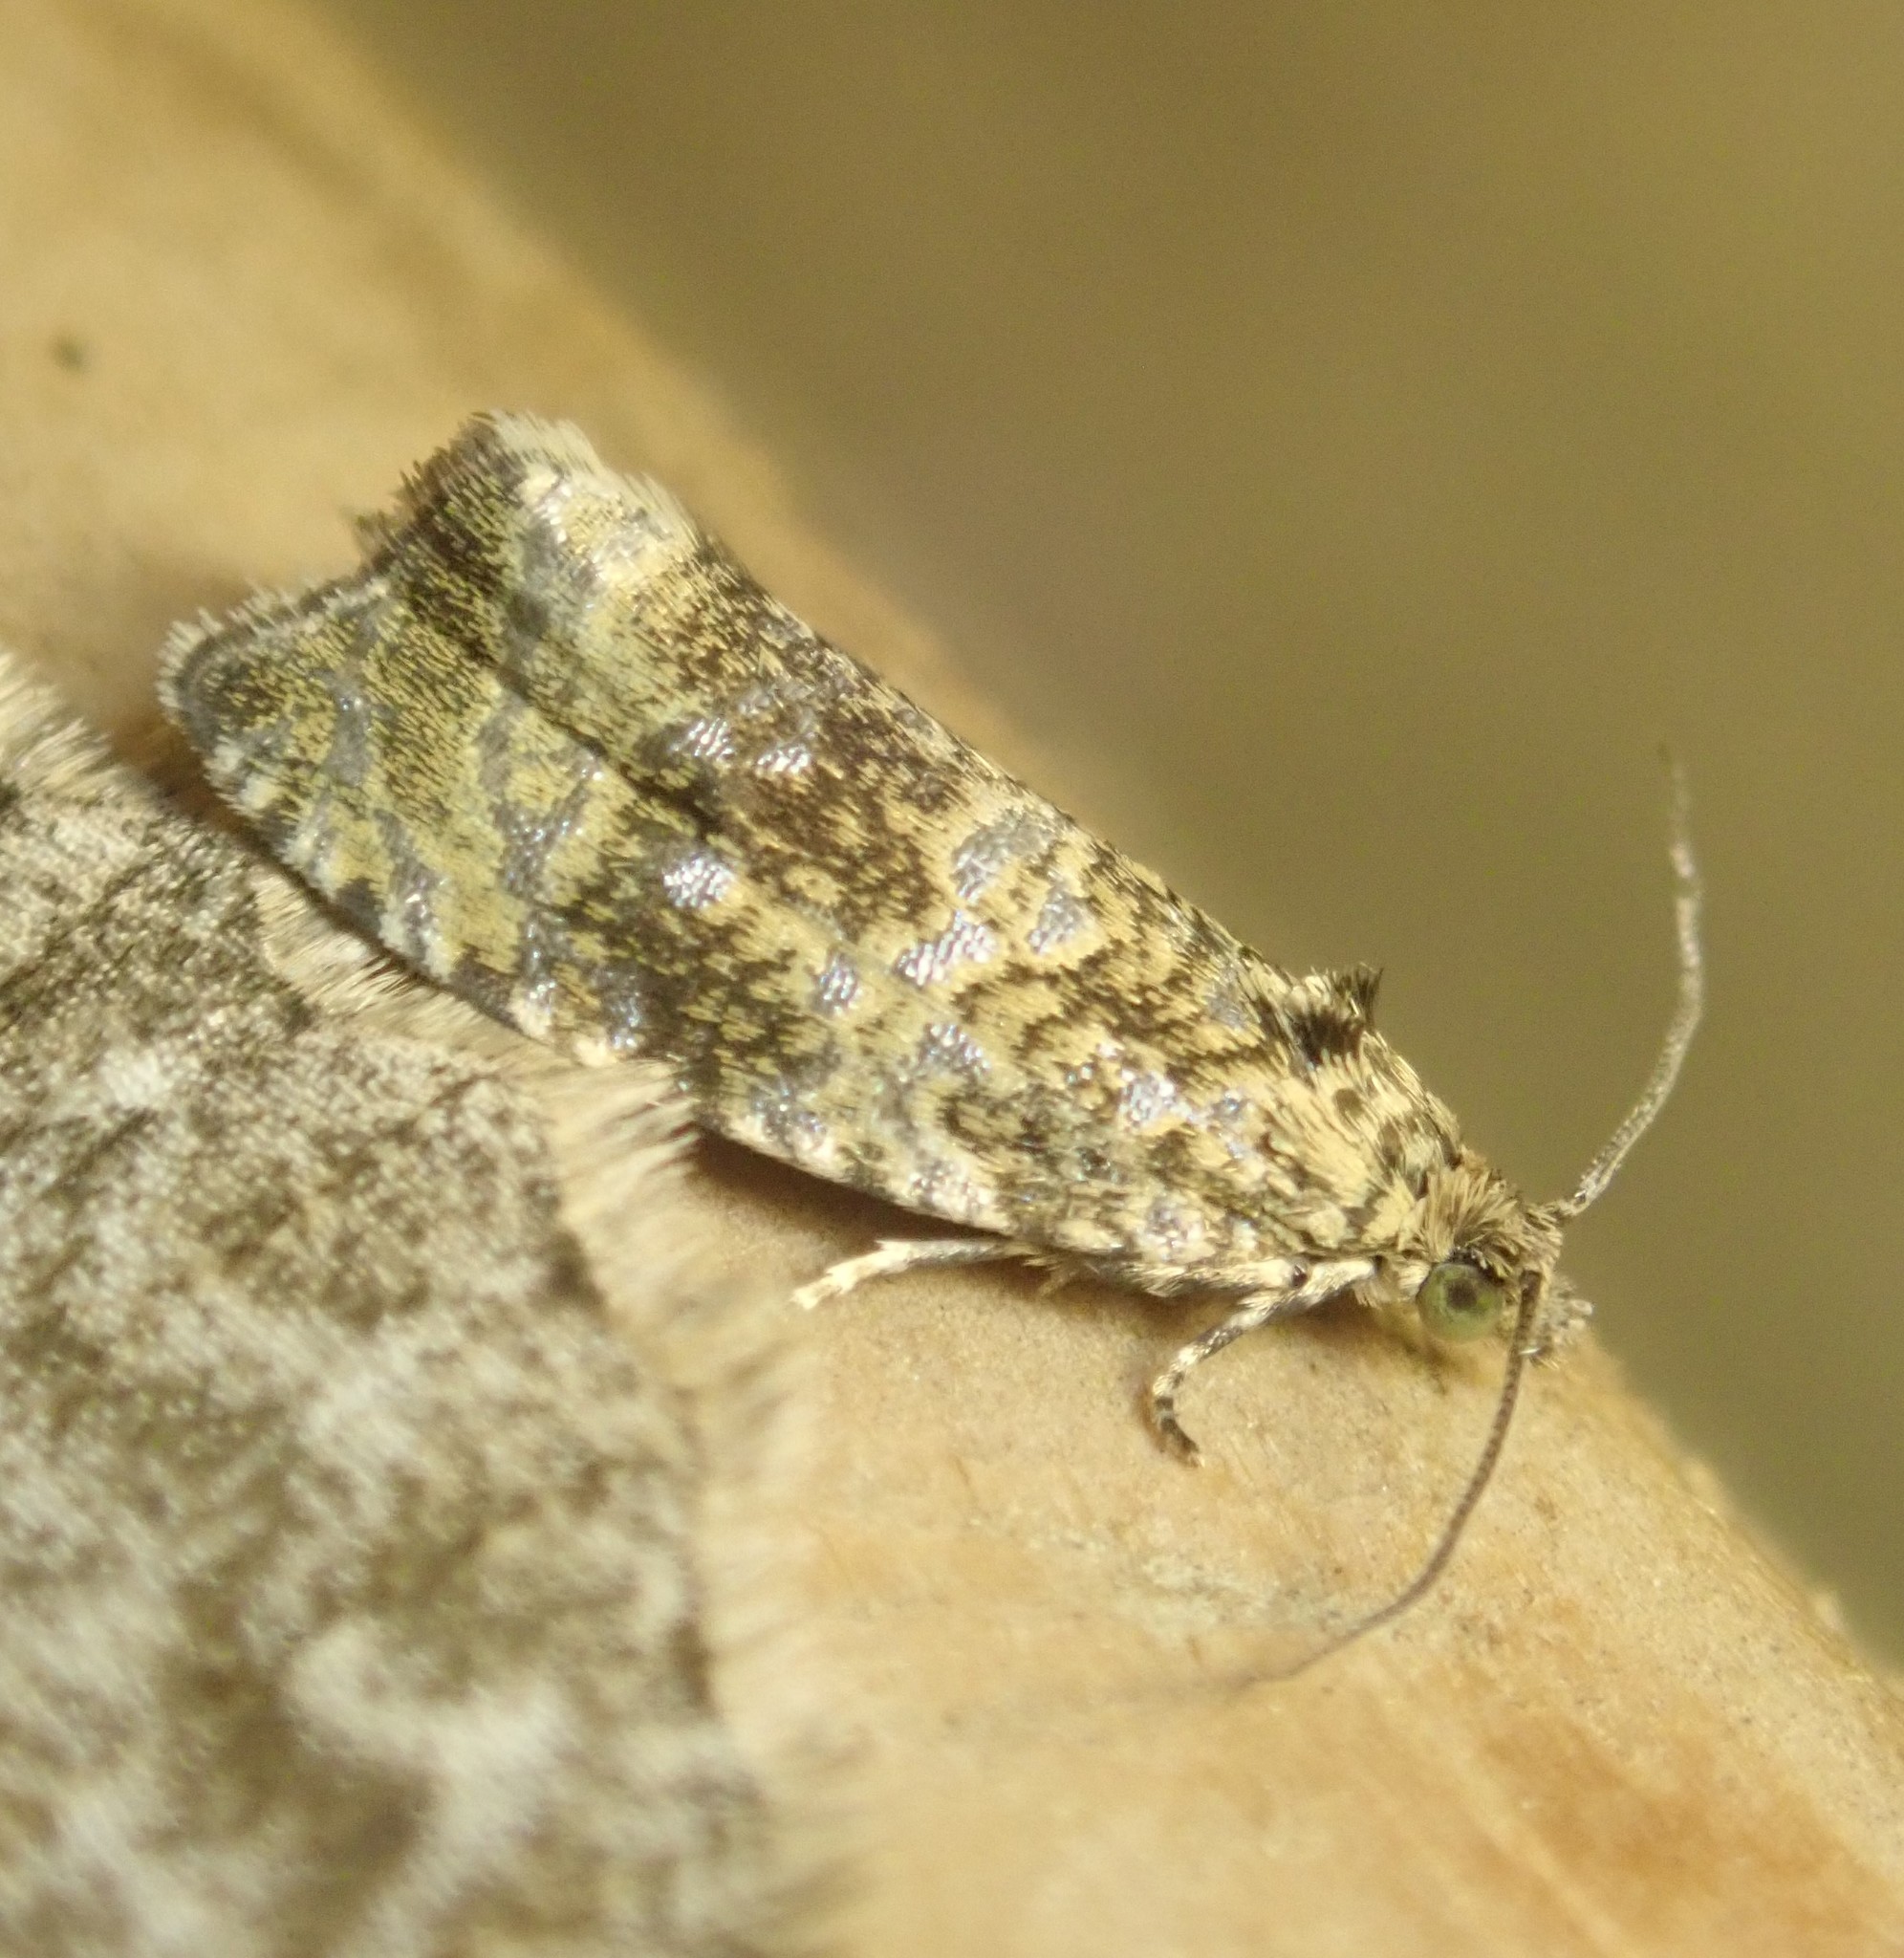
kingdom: Animalia
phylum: Arthropoda
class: Insecta
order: Lepidoptera
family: Tortricidae
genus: Syricoris
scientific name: Syricoris lacunana
